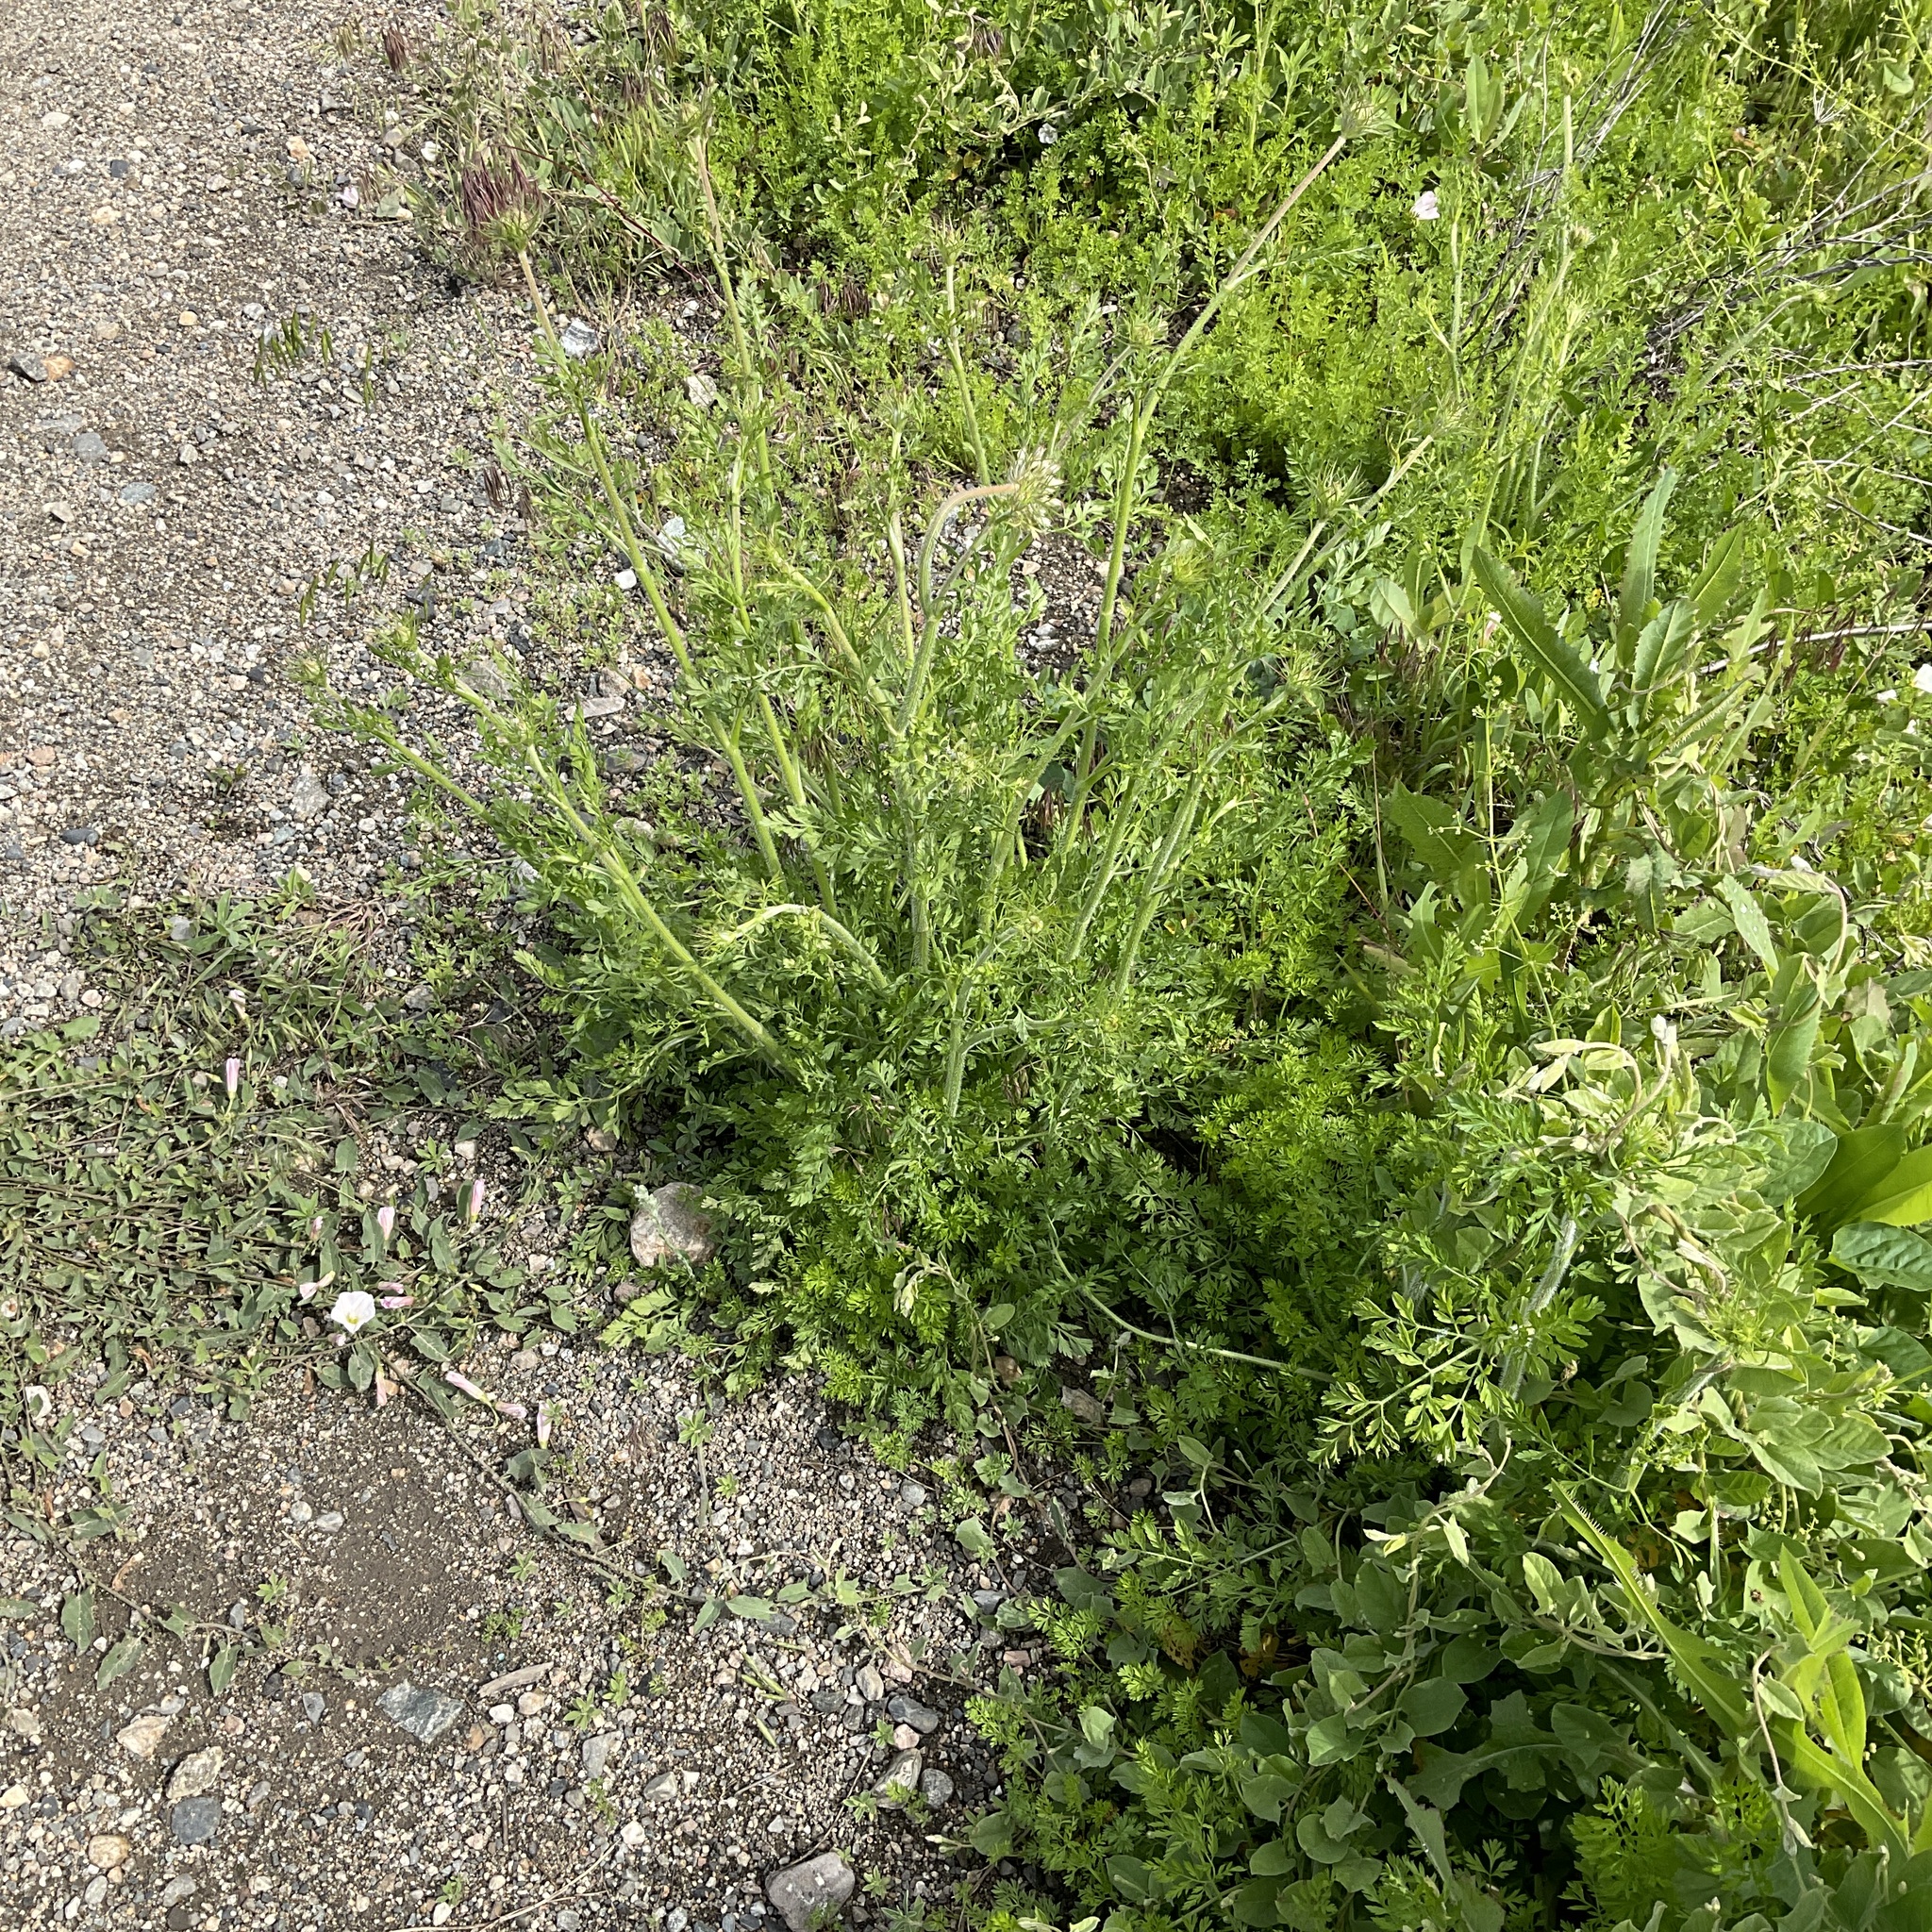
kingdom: Plantae
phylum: Tracheophyta
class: Magnoliopsida
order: Apiales
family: Apiaceae
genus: Daucus
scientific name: Daucus carota
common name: Wild carrot
